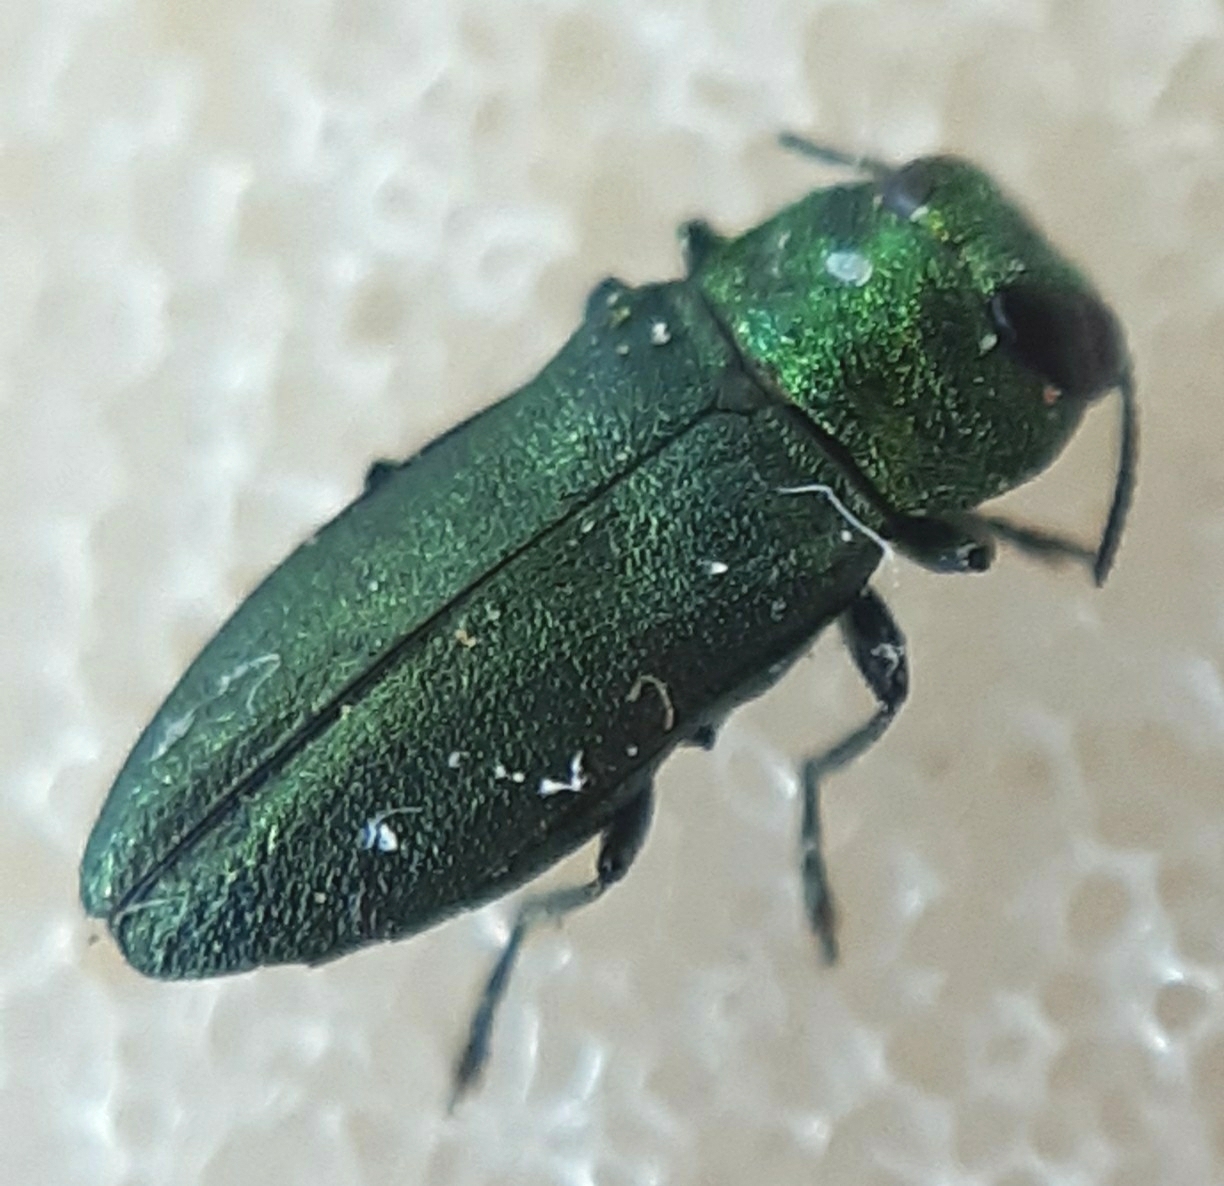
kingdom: Animalia
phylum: Arthropoda
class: Insecta
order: Coleoptera
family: Buprestidae
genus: Anthaxia
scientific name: Anthaxia nitidula
